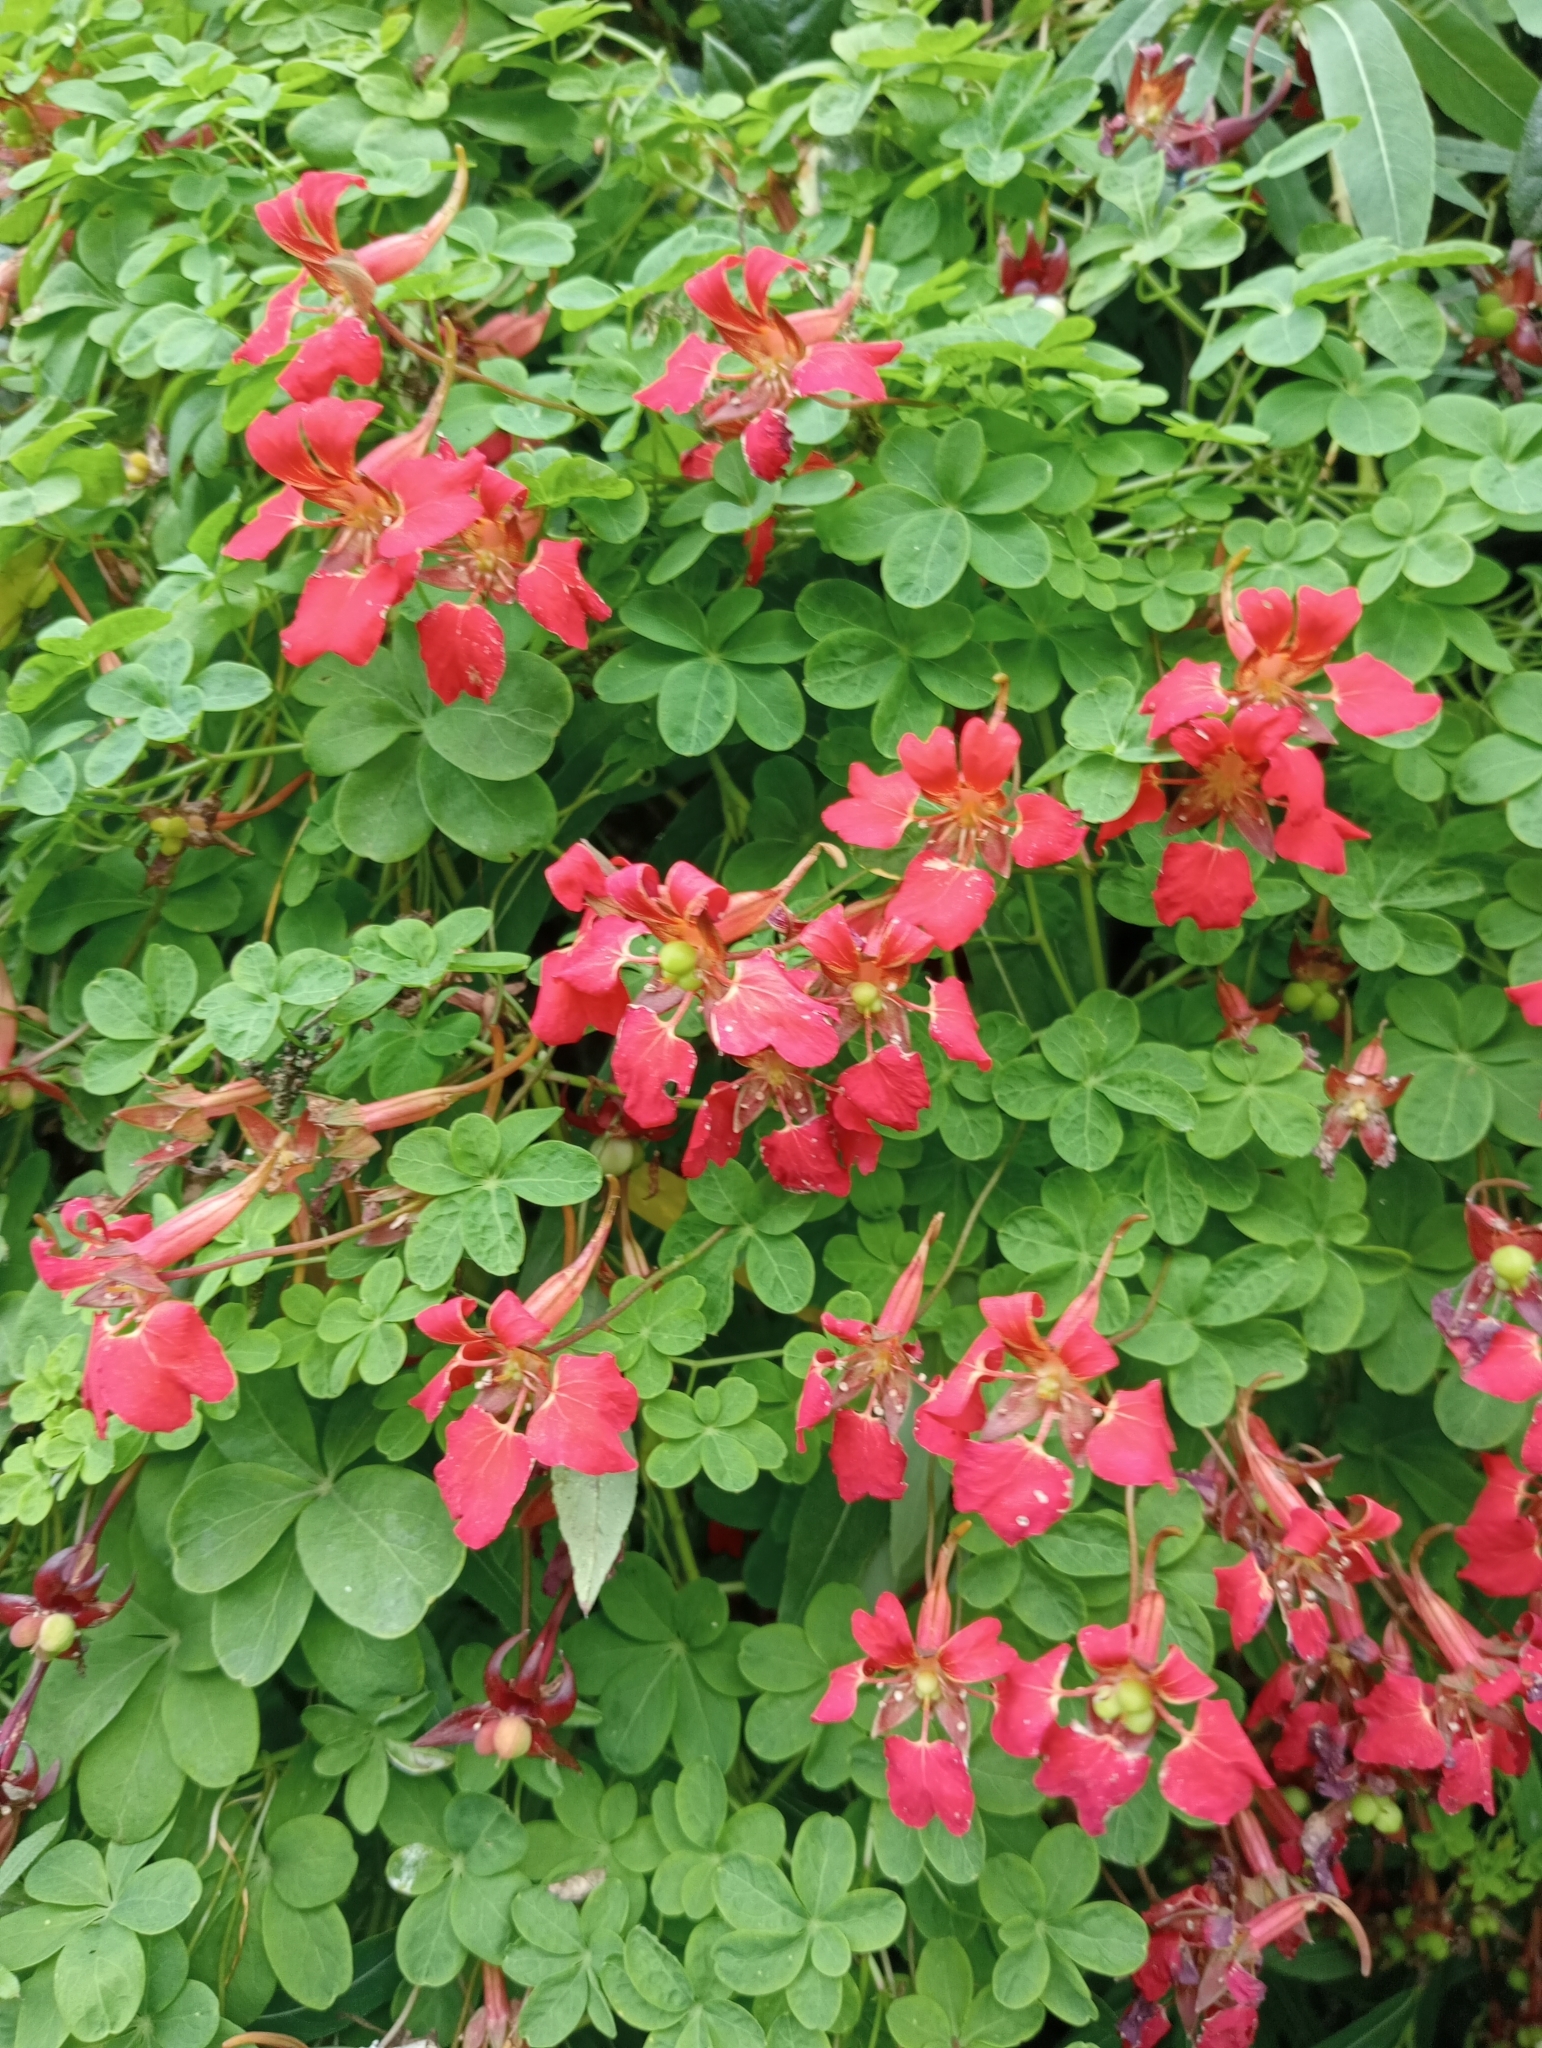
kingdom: Plantae
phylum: Tracheophyta
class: Magnoliopsida
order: Brassicales
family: Tropaeolaceae
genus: Tropaeolum
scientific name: Tropaeolum speciosum
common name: Flame nasturtium
